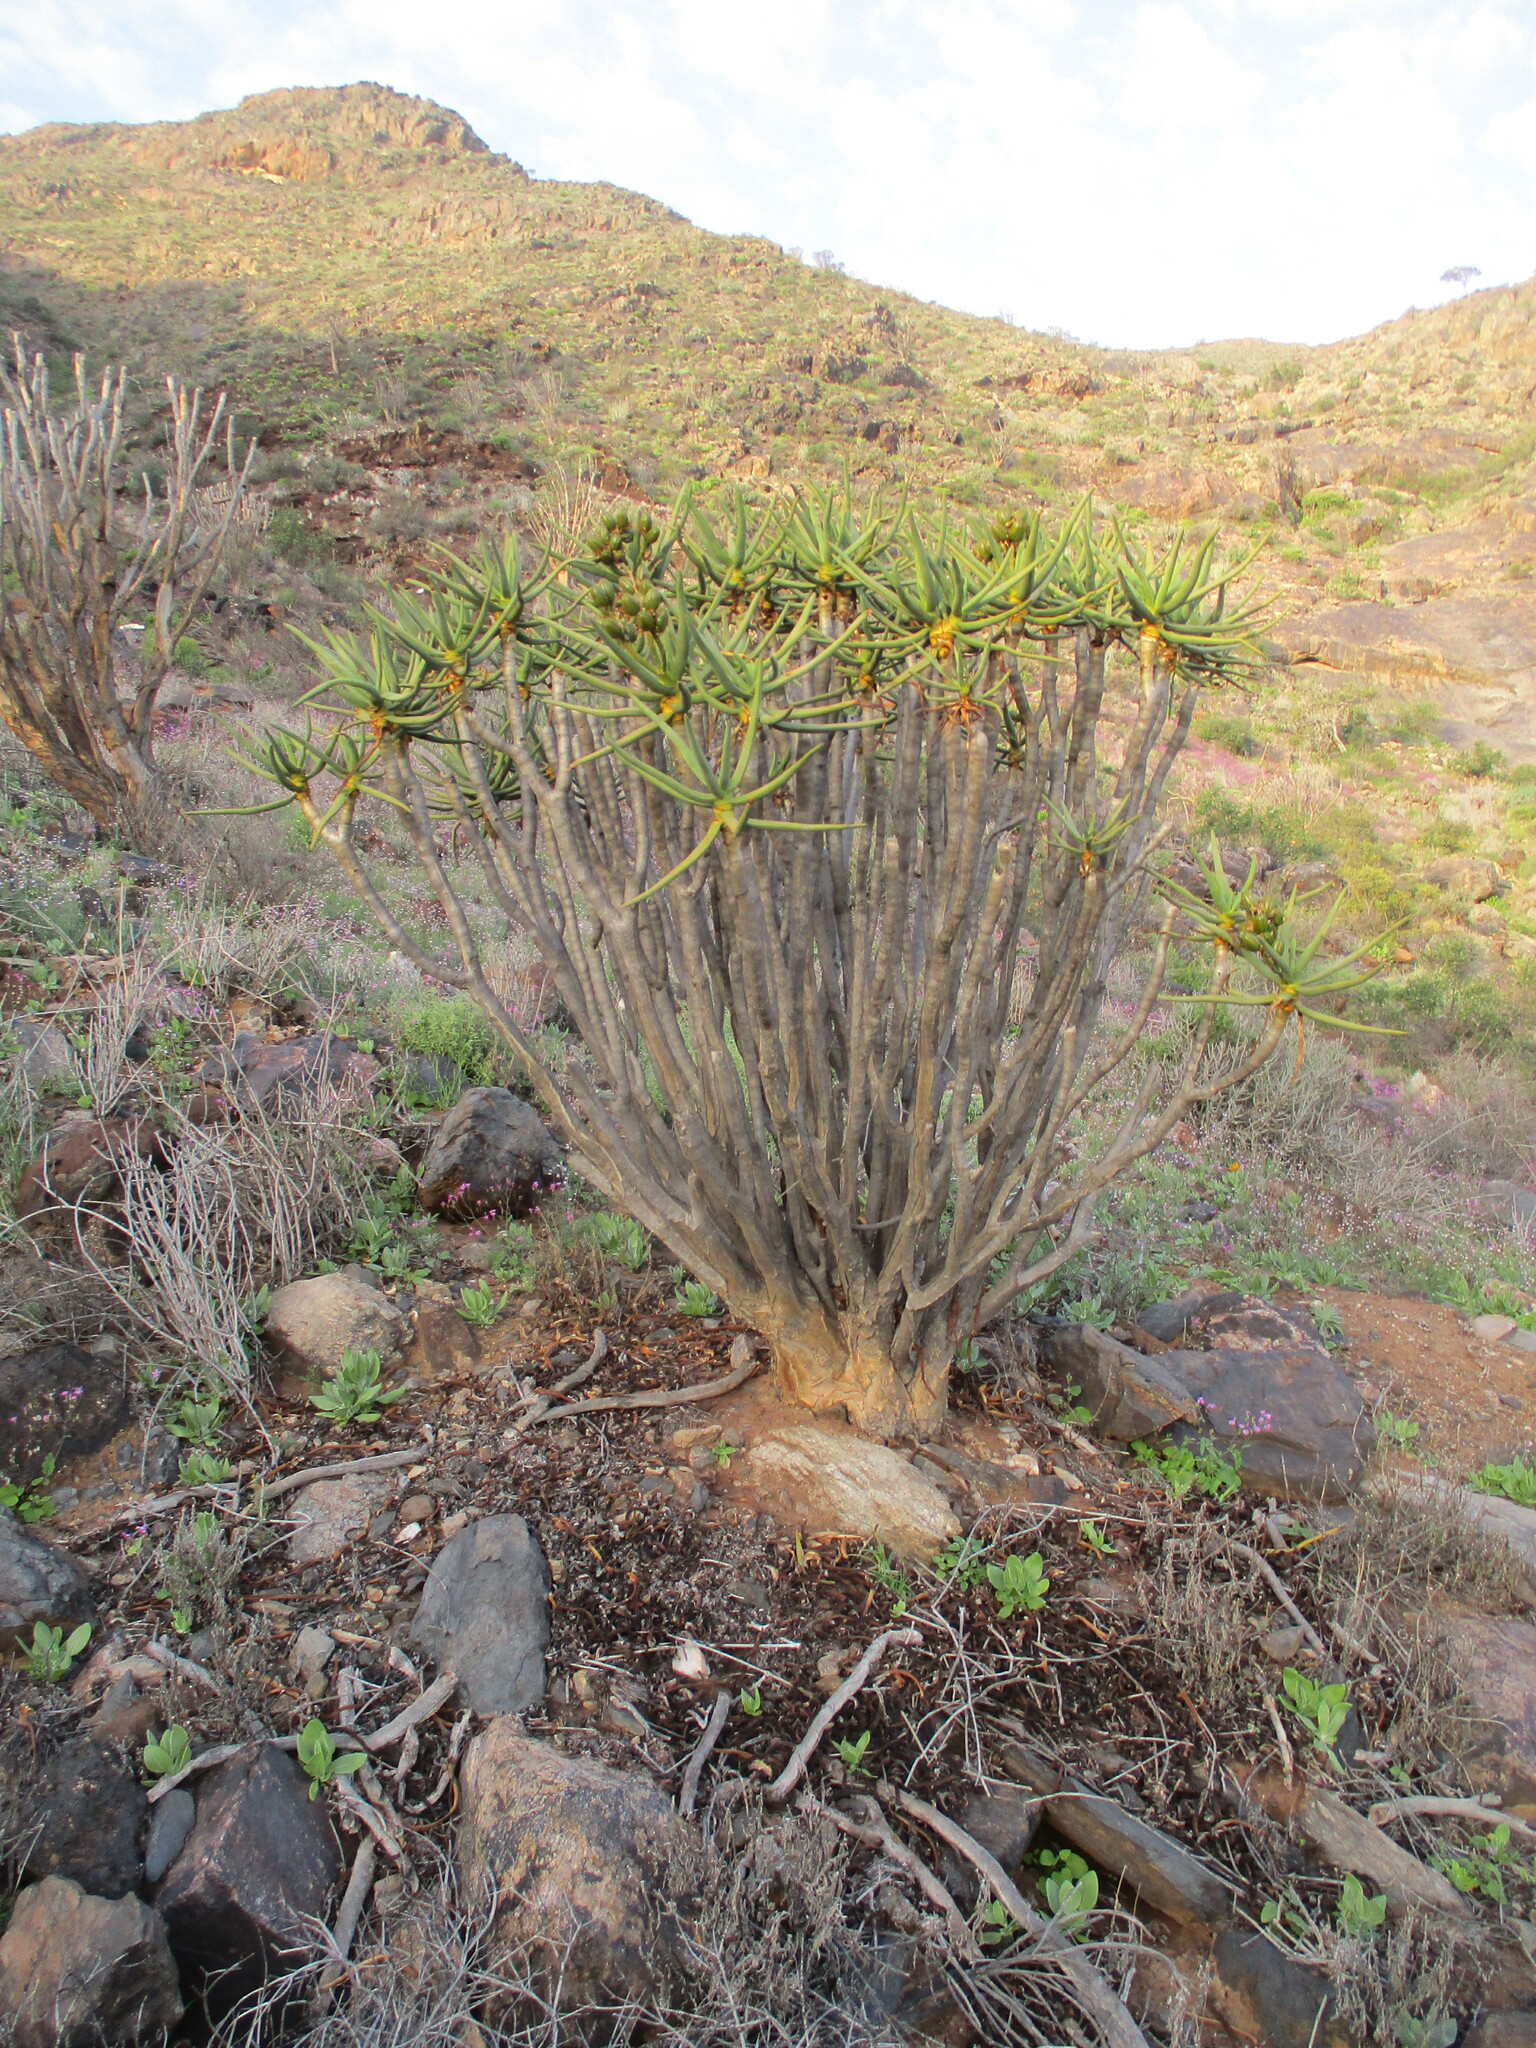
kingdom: Plantae
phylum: Tracheophyta
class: Liliopsida
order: Asparagales
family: Asphodelaceae
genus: Aloidendron
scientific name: Aloidendron ramosissimum
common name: Bush quiver tree
